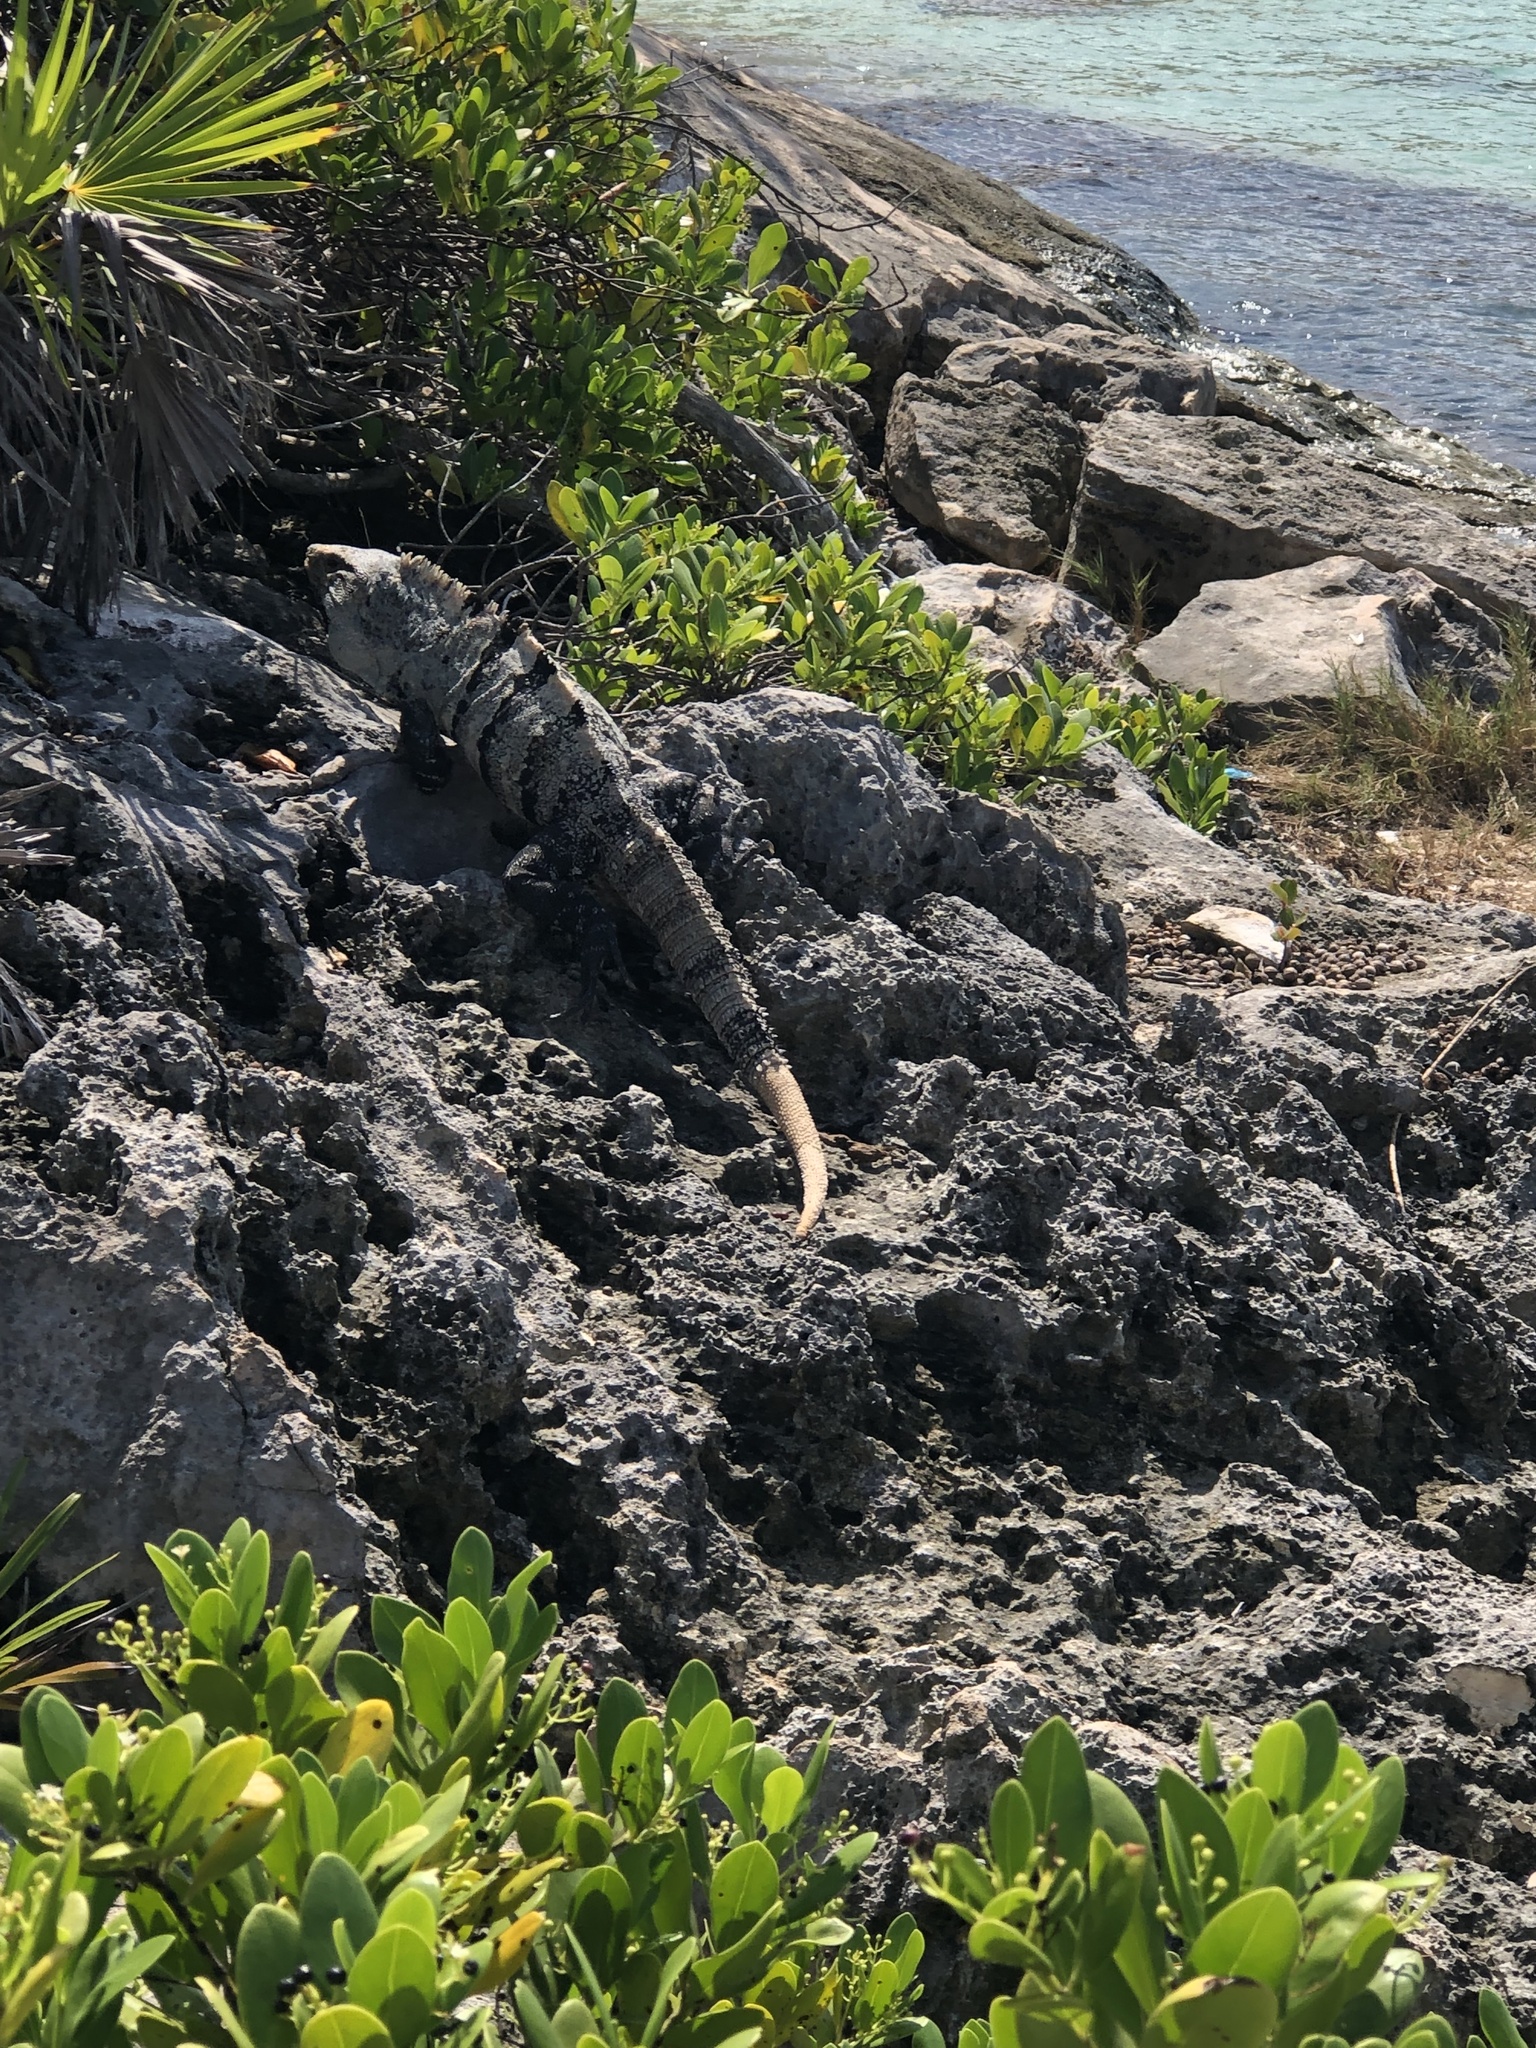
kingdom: Animalia
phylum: Chordata
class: Squamata
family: Iguanidae
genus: Ctenosaura
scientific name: Ctenosaura similis
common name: Black spiny-tailed iguana
